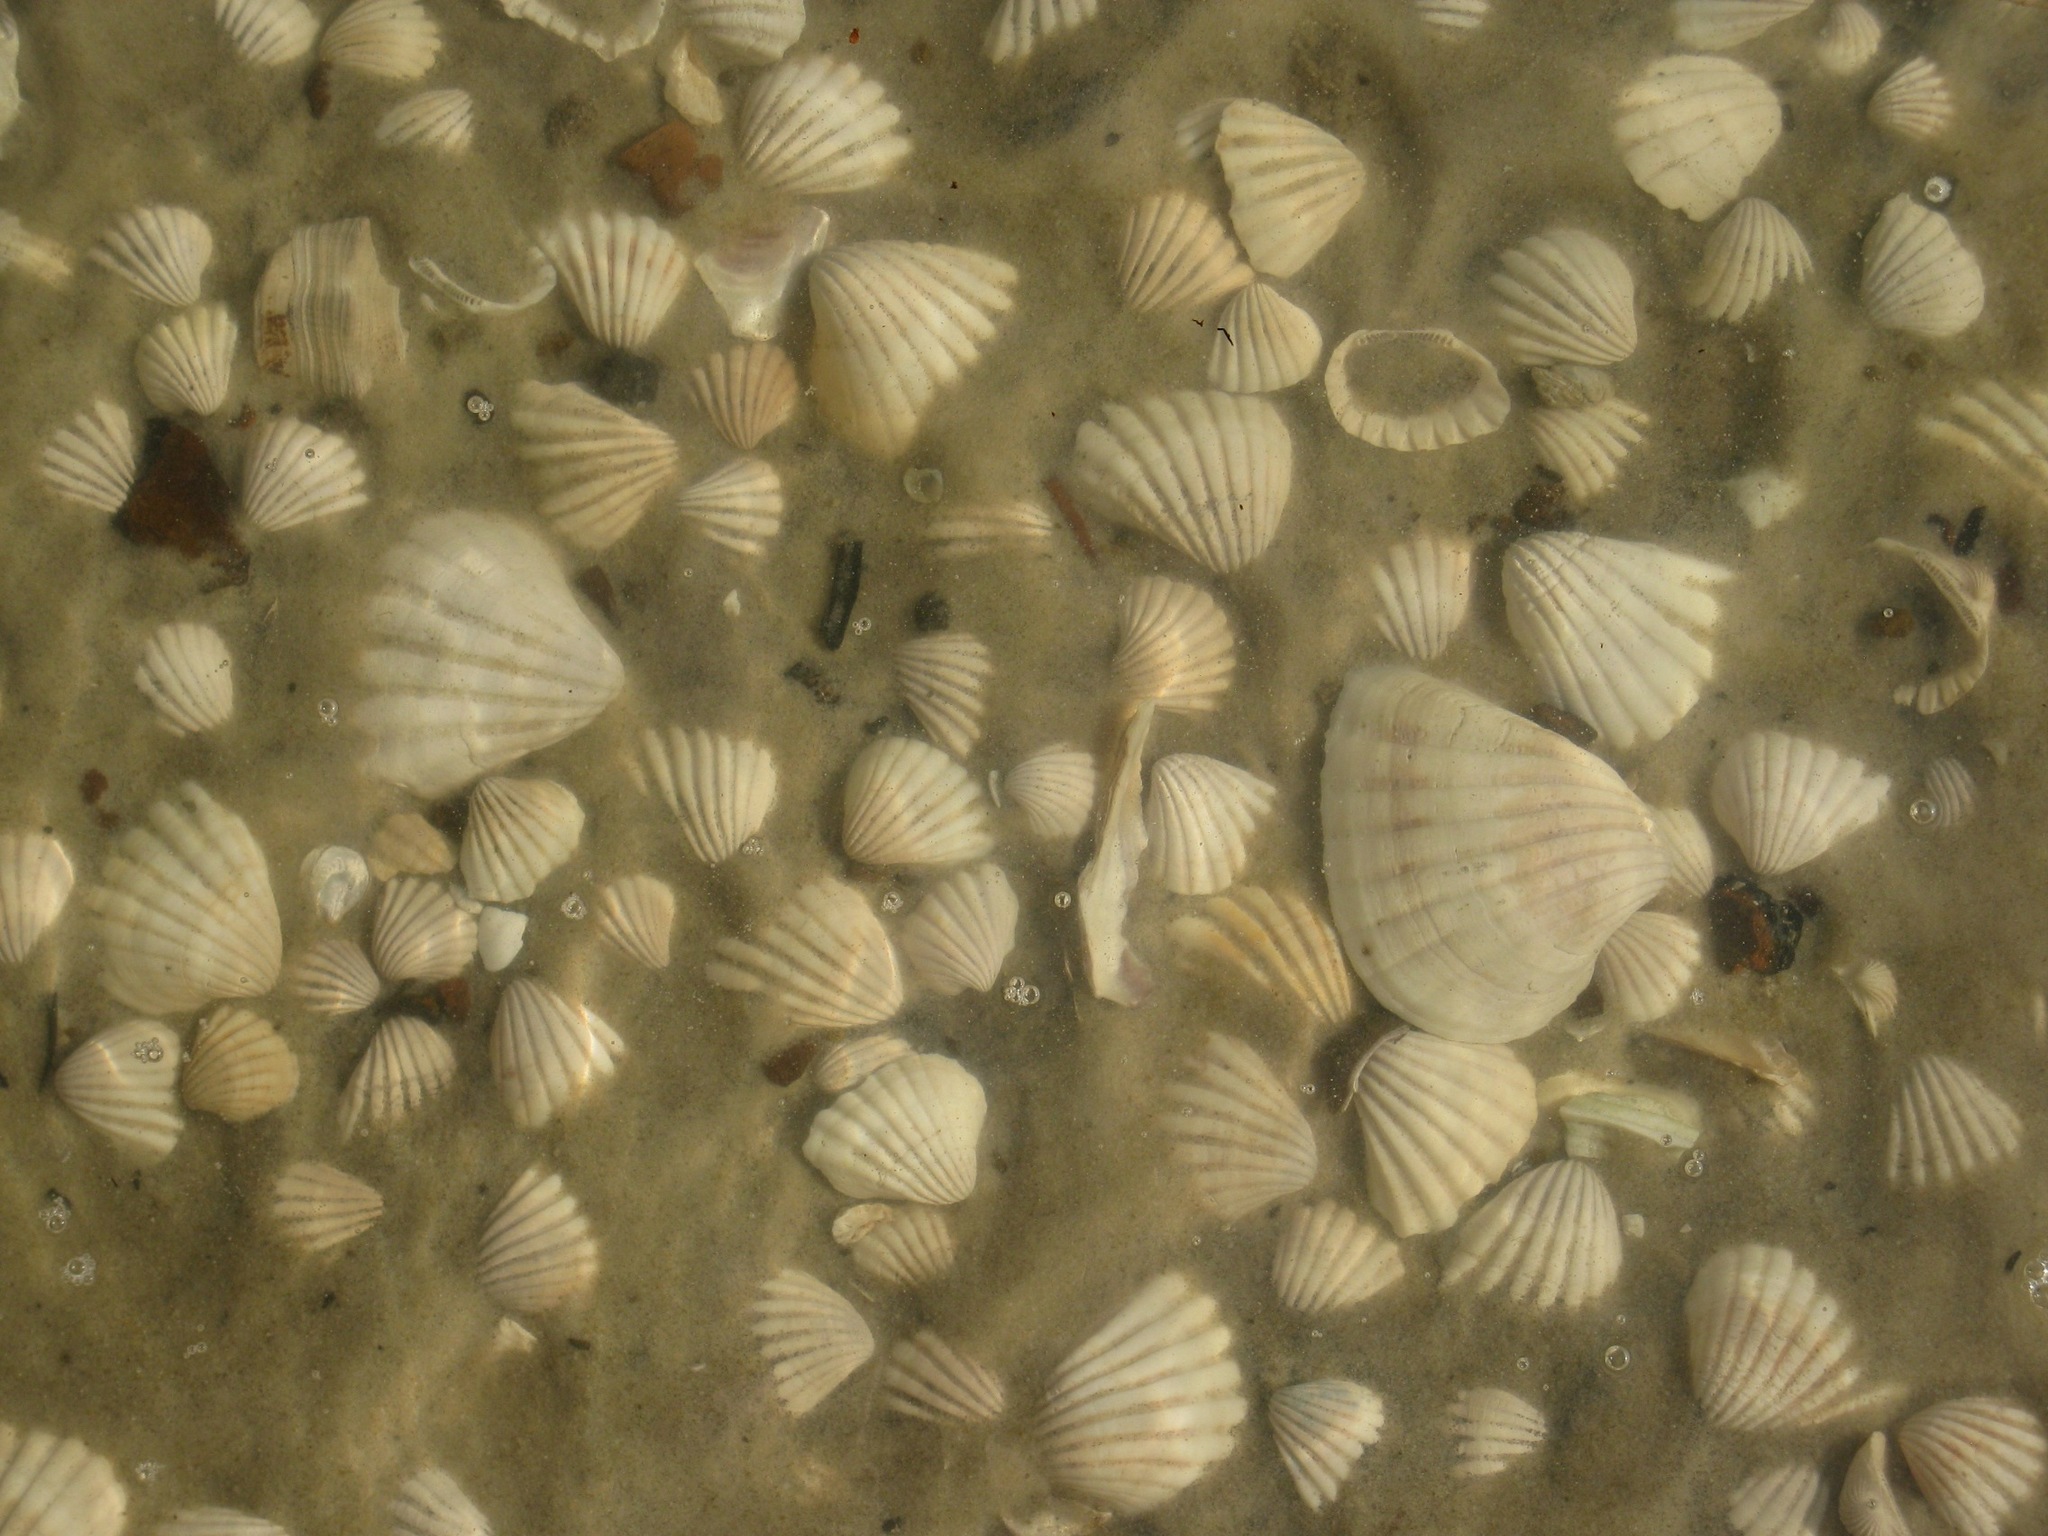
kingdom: Animalia
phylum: Mollusca
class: Bivalvia
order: Arcida
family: Arcidae
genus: Senilia
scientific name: Senilia senilis
